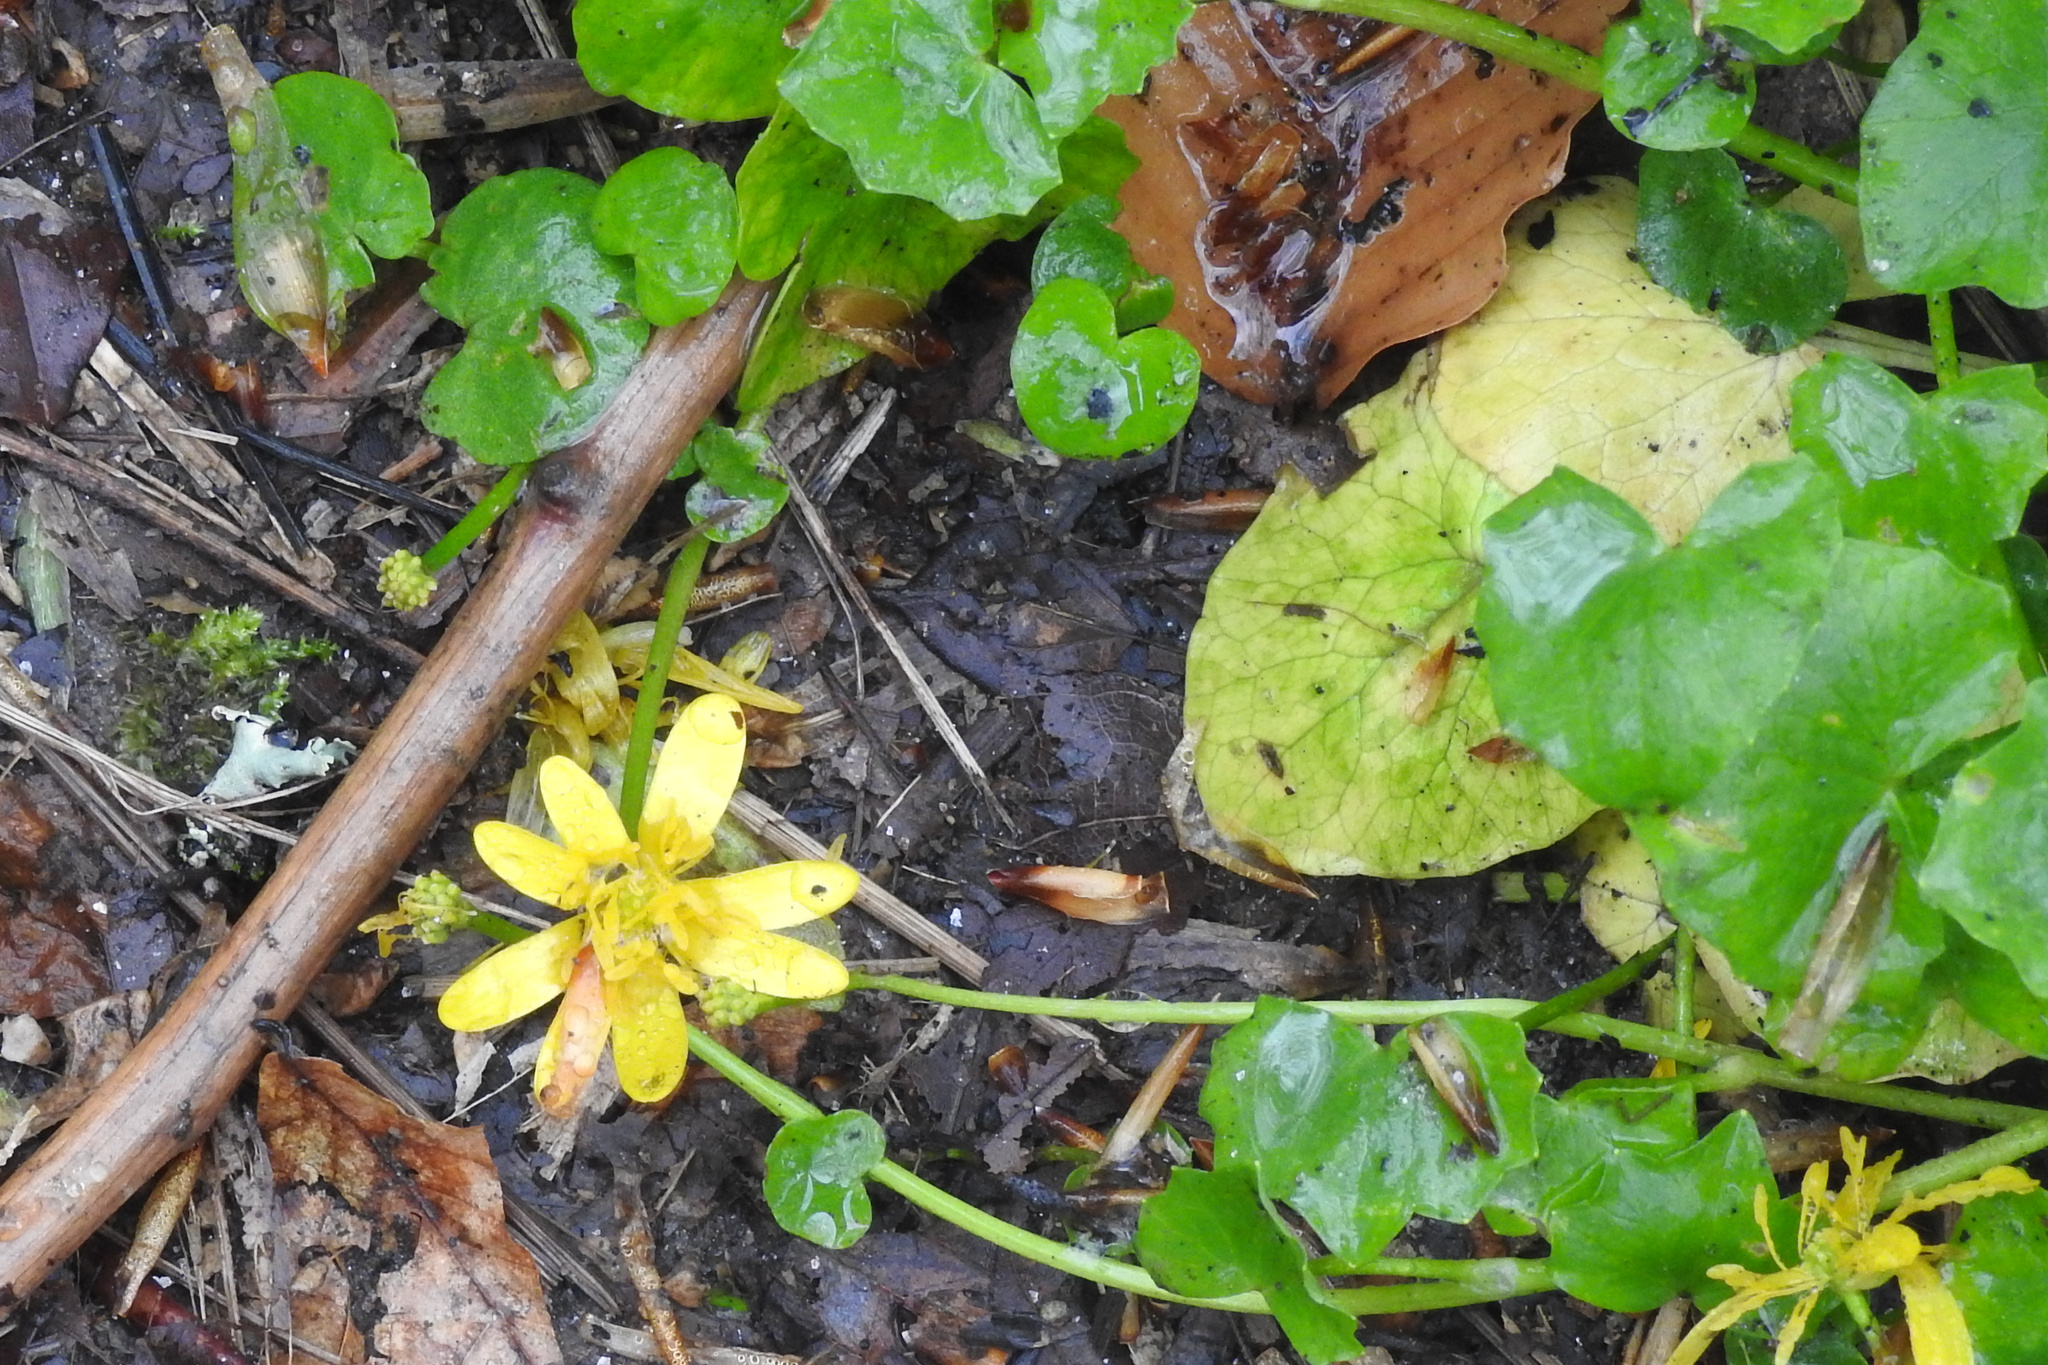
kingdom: Plantae
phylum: Tracheophyta
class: Magnoliopsida
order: Ranunculales
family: Ranunculaceae
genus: Ficaria
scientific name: Ficaria verna
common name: Lesser celandine
